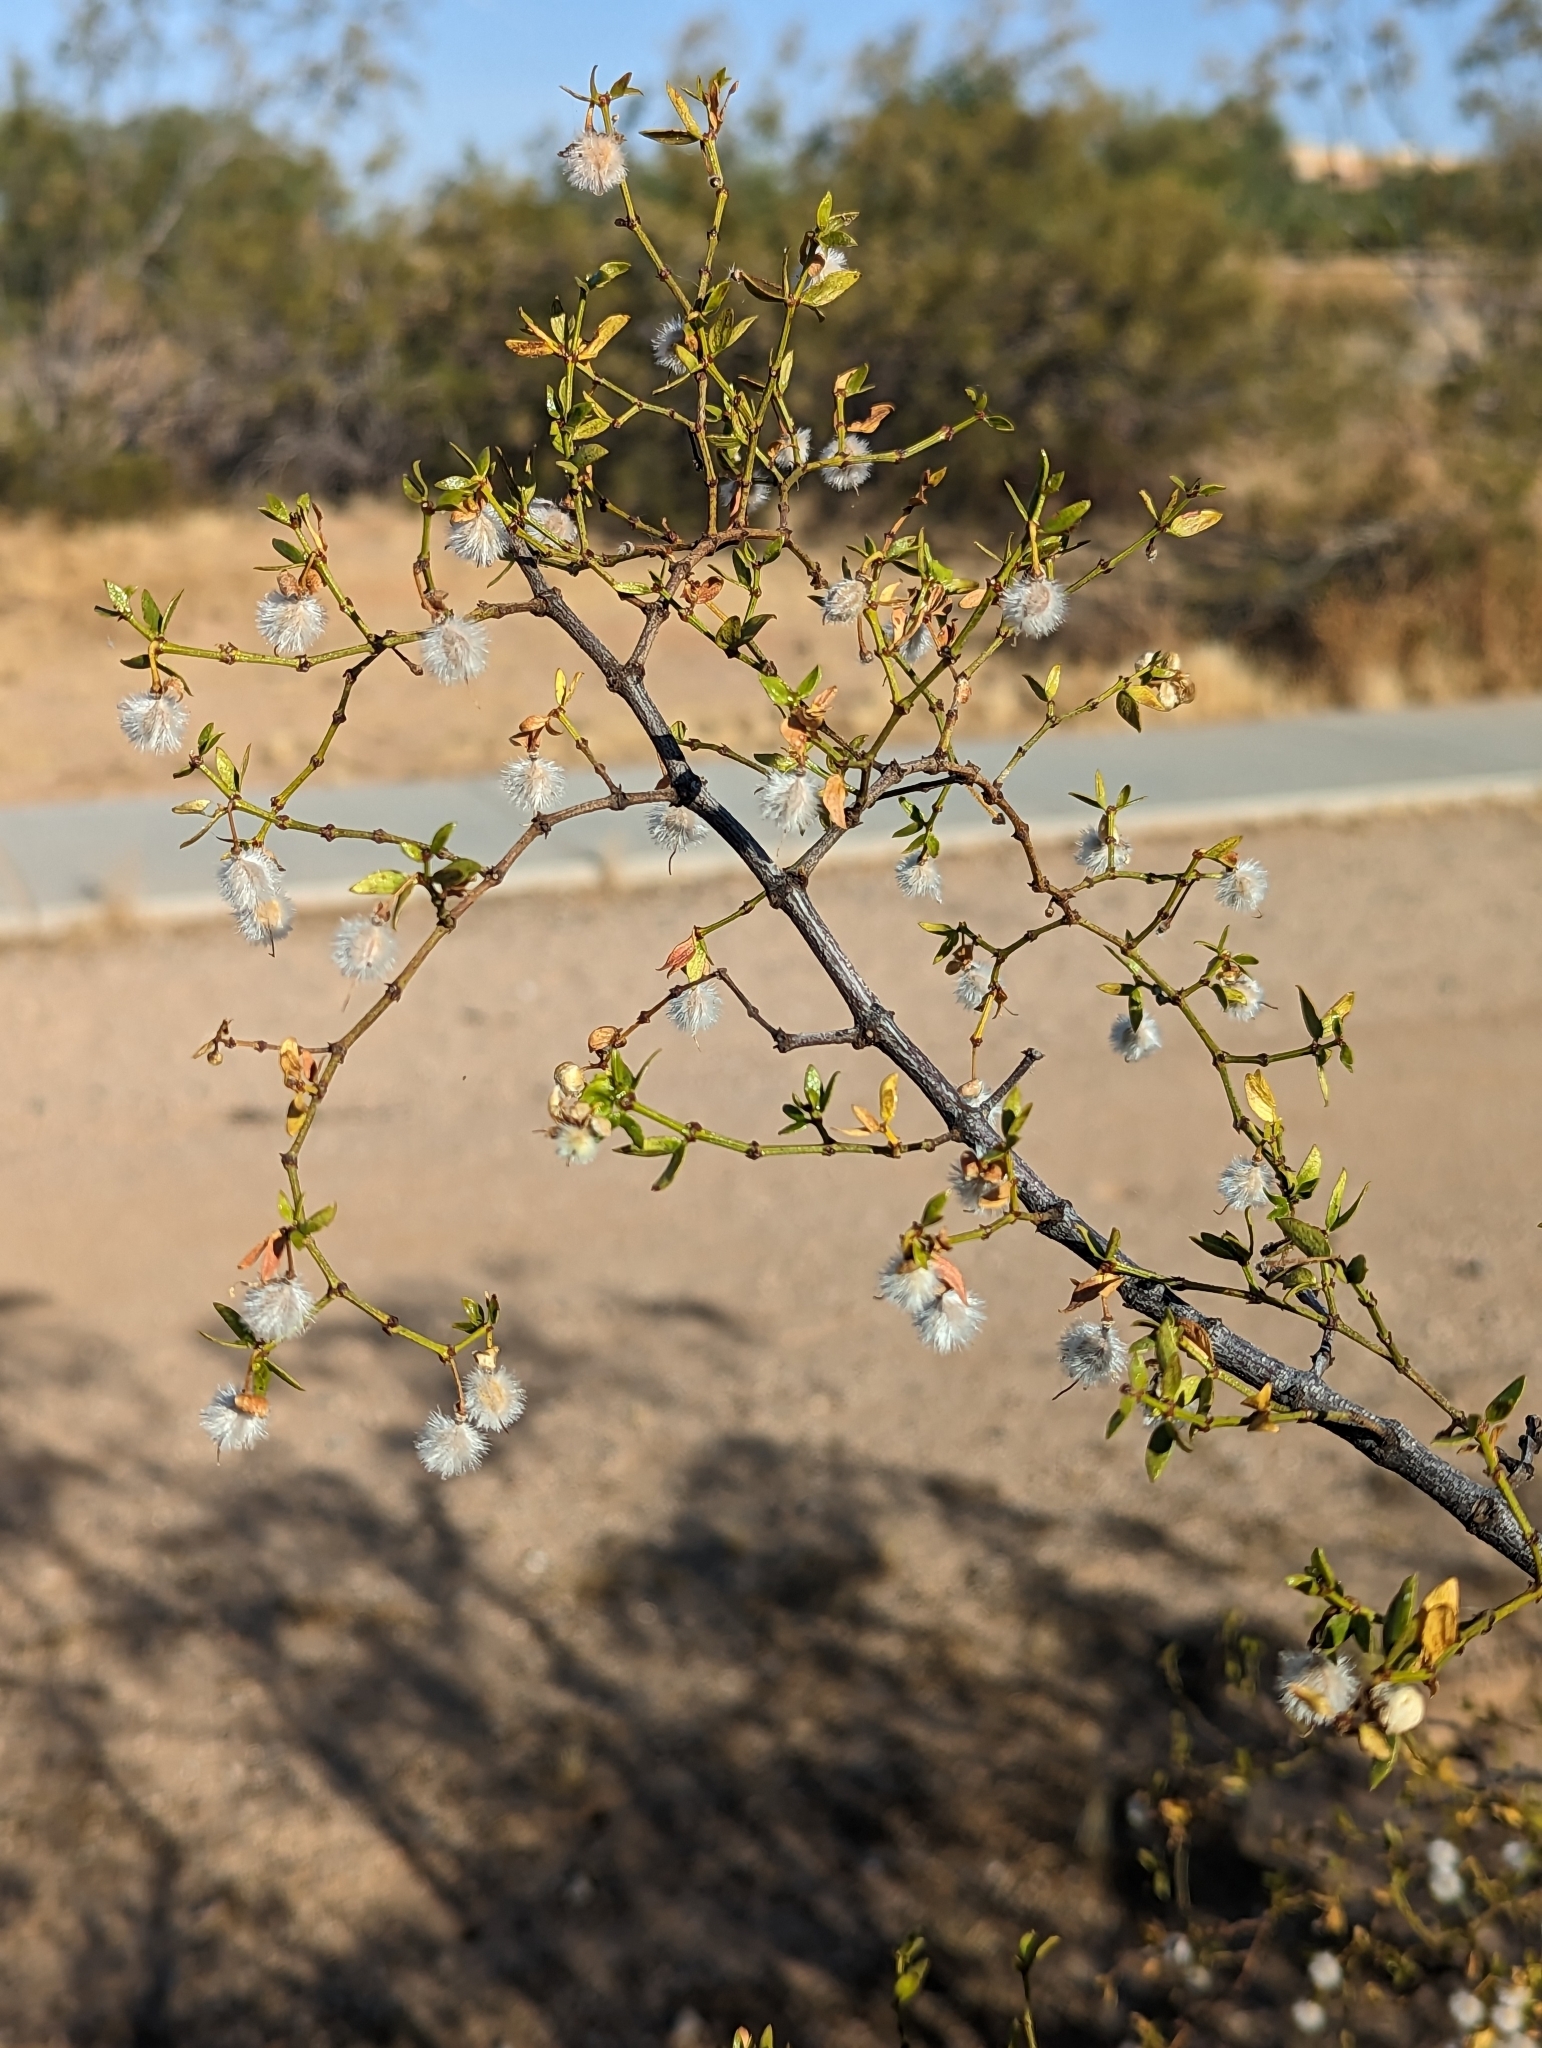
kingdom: Plantae
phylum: Tracheophyta
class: Magnoliopsida
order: Zygophyllales
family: Zygophyllaceae
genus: Larrea
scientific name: Larrea tridentata
